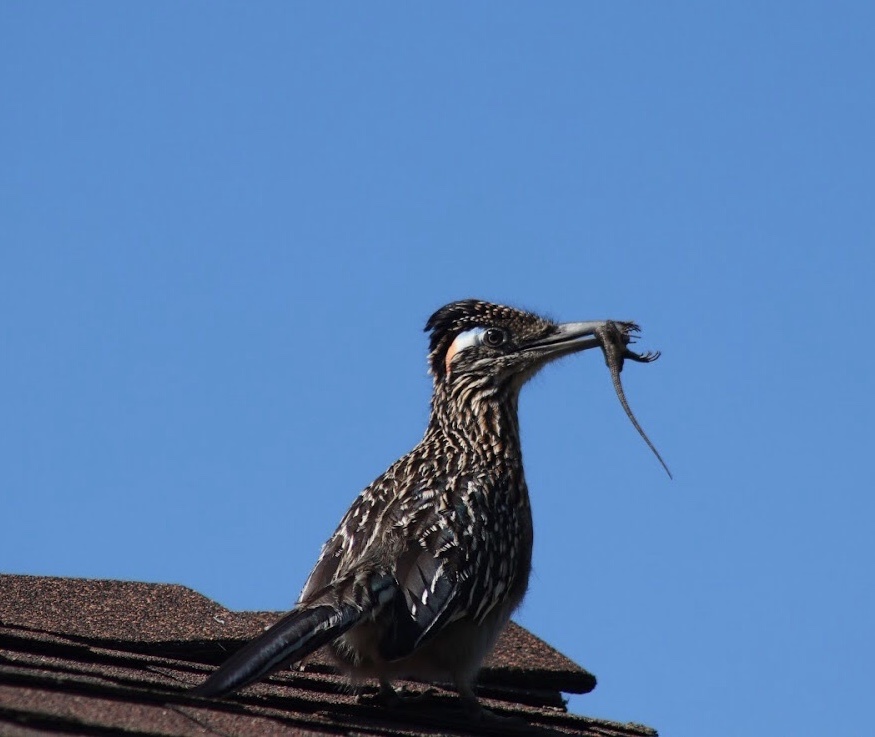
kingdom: Animalia
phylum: Chordata
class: Aves
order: Cuculiformes
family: Cuculidae
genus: Geococcyx
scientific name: Geococcyx californianus
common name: Greater roadrunner
